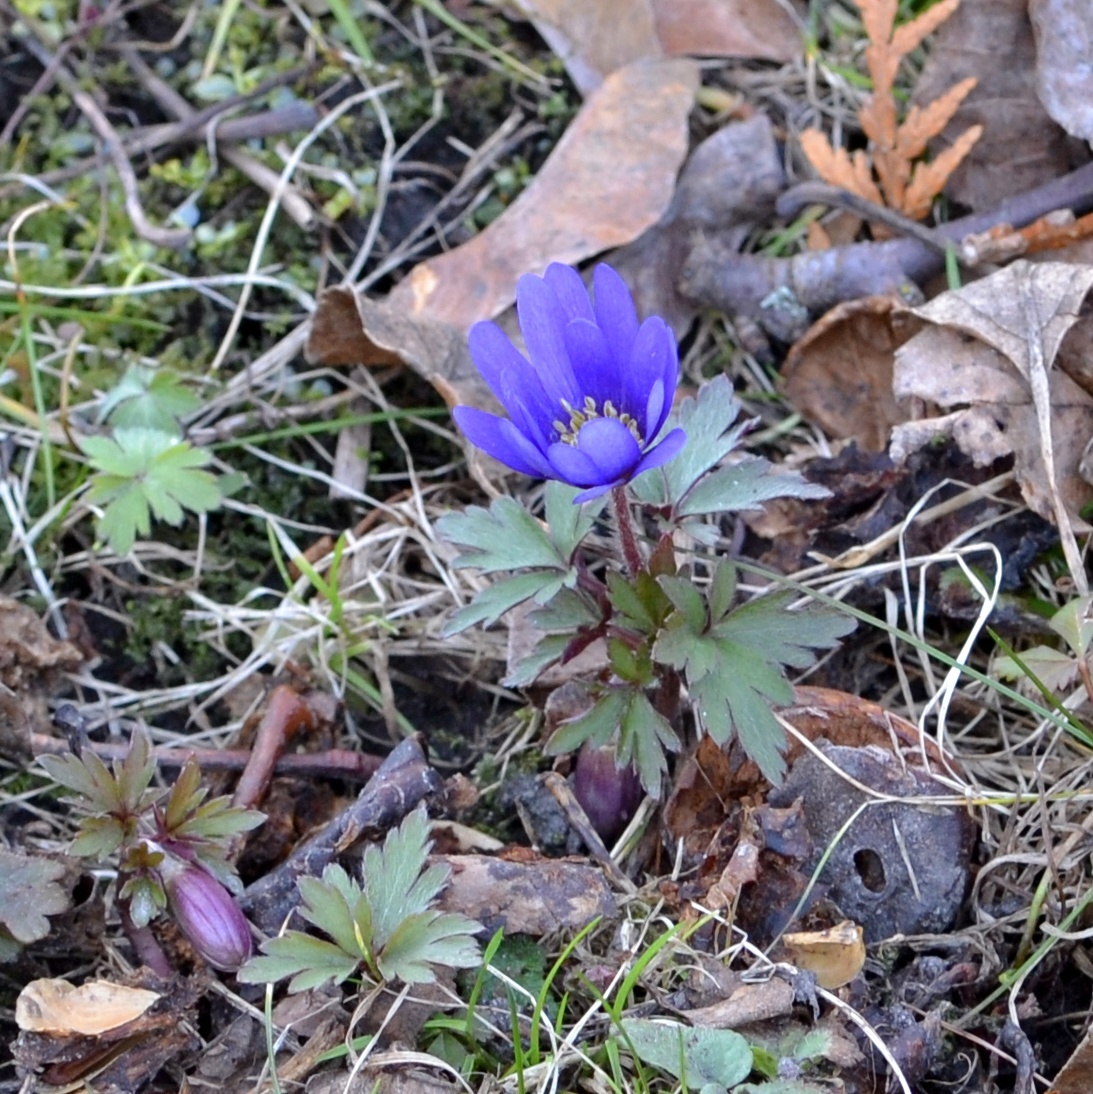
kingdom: Plantae
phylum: Tracheophyta
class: Magnoliopsida
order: Ranunculales
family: Ranunculaceae
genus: Anemone
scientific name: Anemone blanda
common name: Balkan anemone
